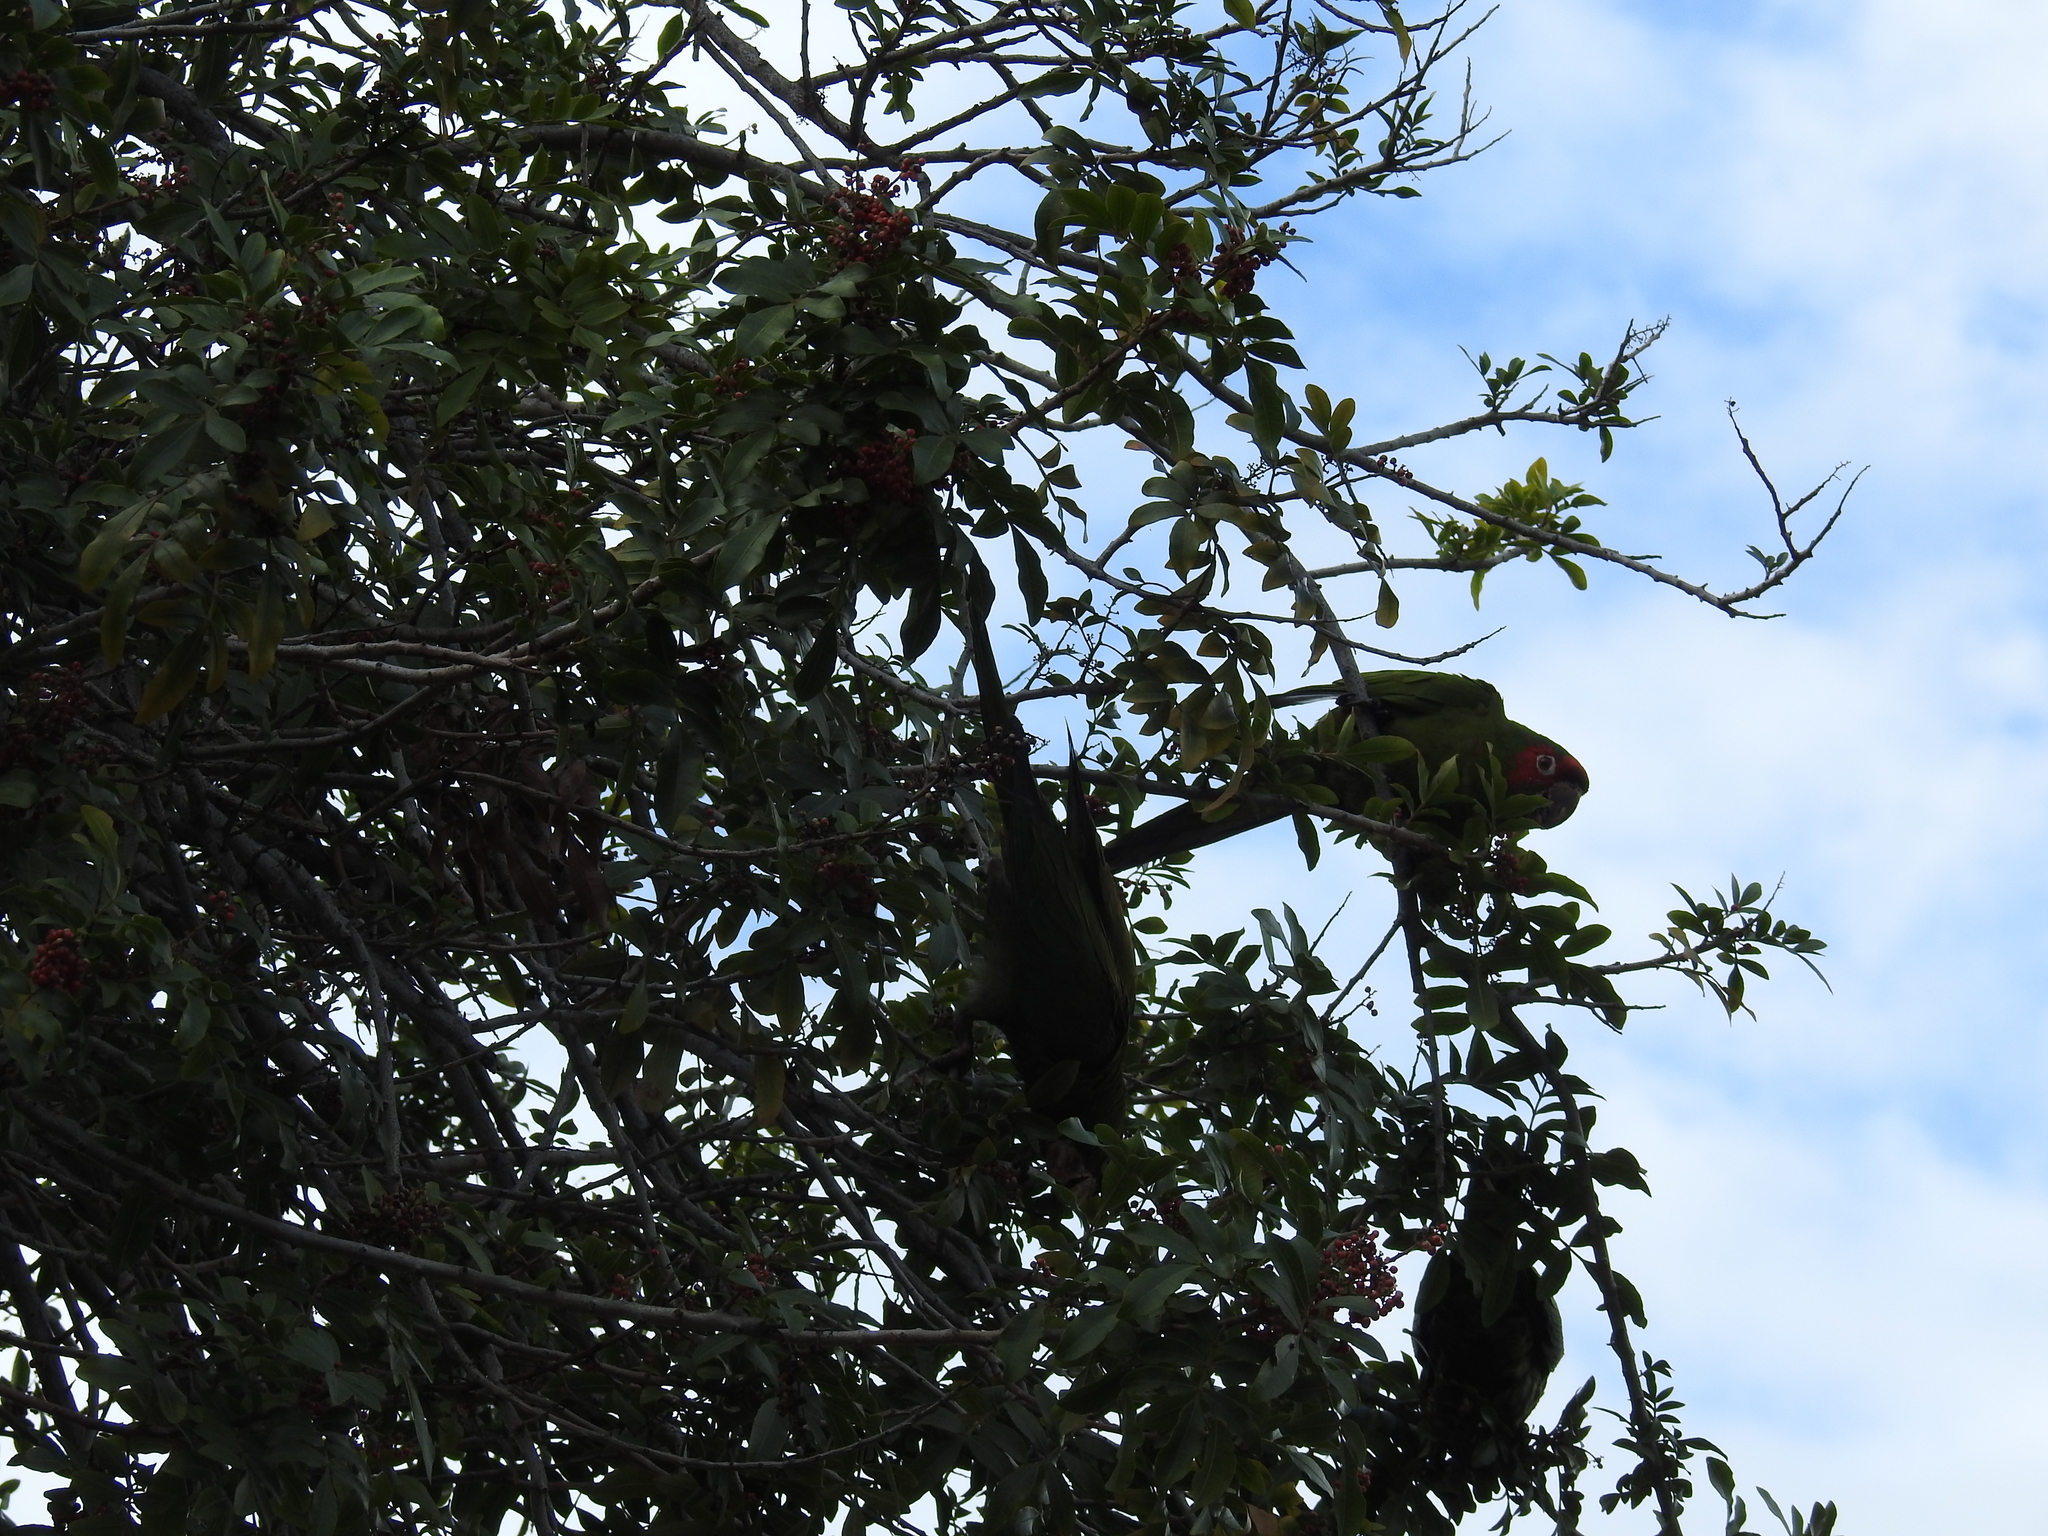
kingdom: Animalia
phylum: Chordata
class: Aves
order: Psittaciformes
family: Psittacidae
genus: Aratinga
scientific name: Aratinga mitrata
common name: Mitred parakeet
